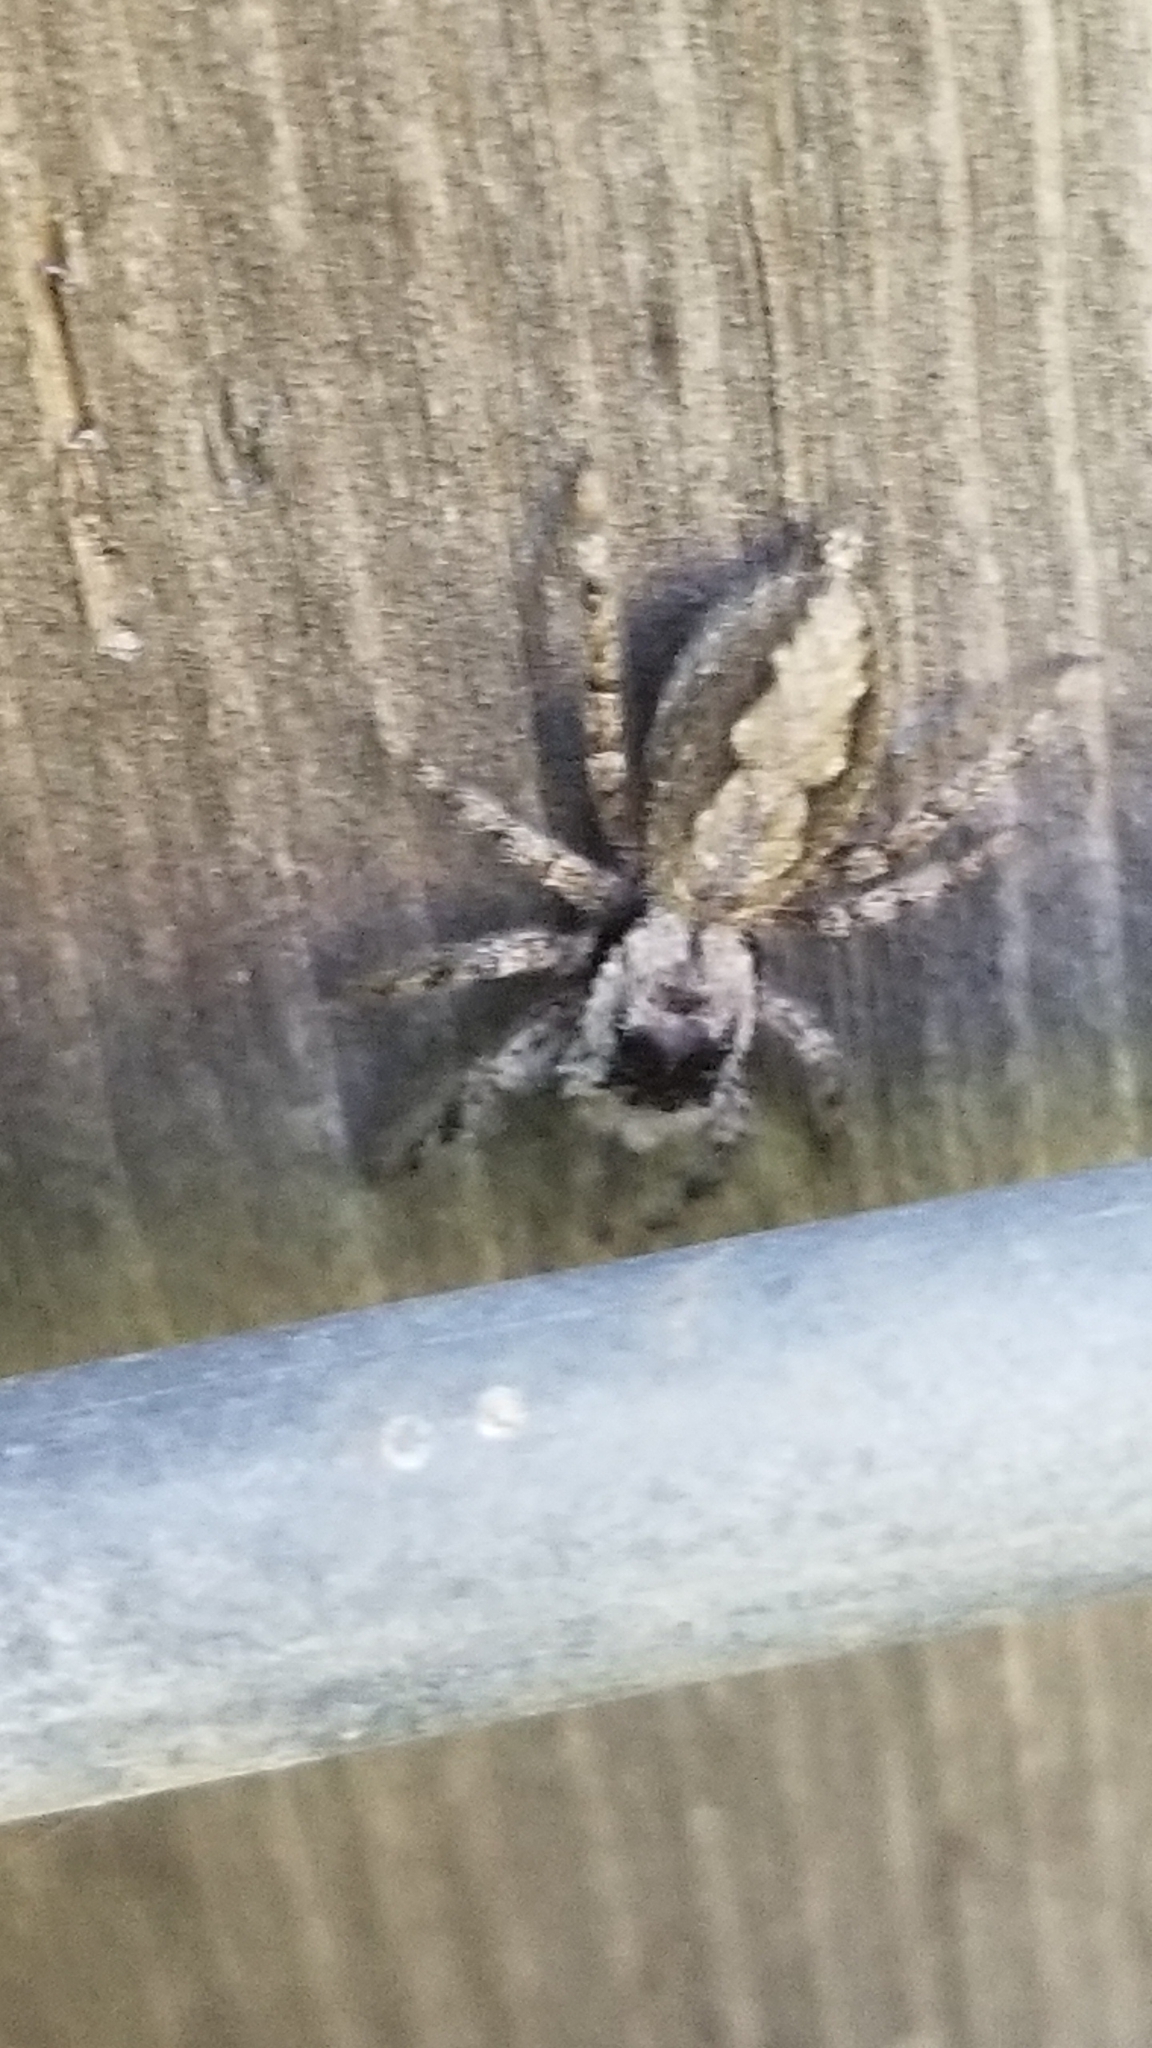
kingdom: Animalia
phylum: Arthropoda
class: Arachnida
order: Araneae
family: Salticidae
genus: Platycryptus
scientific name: Platycryptus undatus
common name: Tan jumping spider
